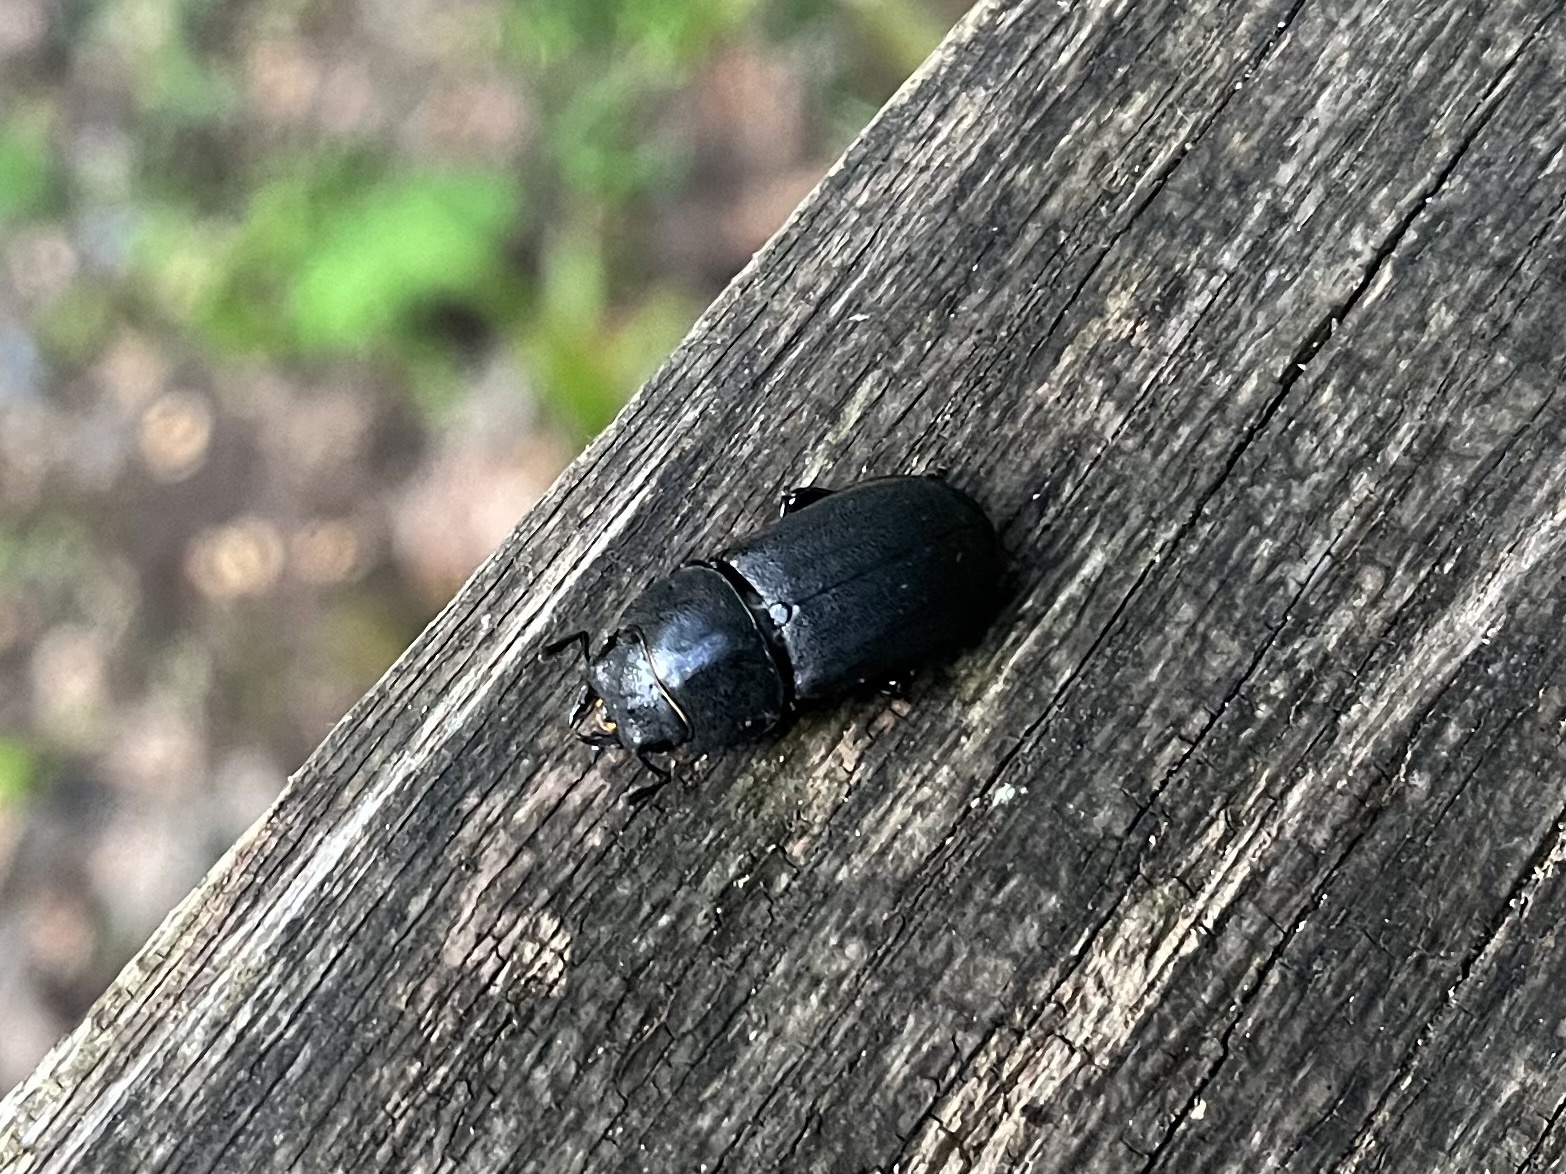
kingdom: Animalia
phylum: Arthropoda
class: Insecta
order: Coleoptera
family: Lucanidae
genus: Dorcus
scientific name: Dorcus parallelipipedus
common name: Lesser stag beetle
